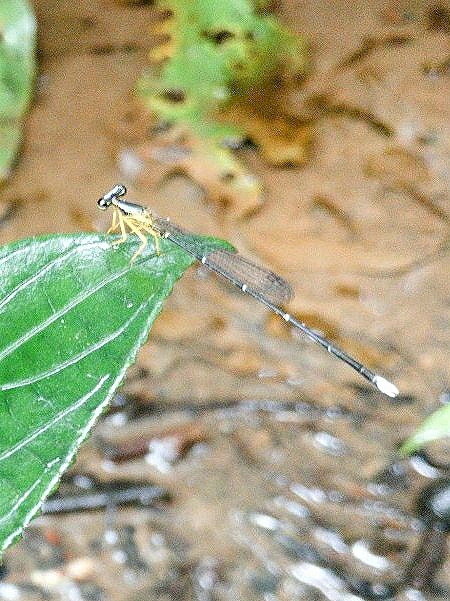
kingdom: Animalia
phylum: Arthropoda
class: Insecta
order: Odonata
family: Platycnemididae
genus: Copera
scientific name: Copera marginipes
